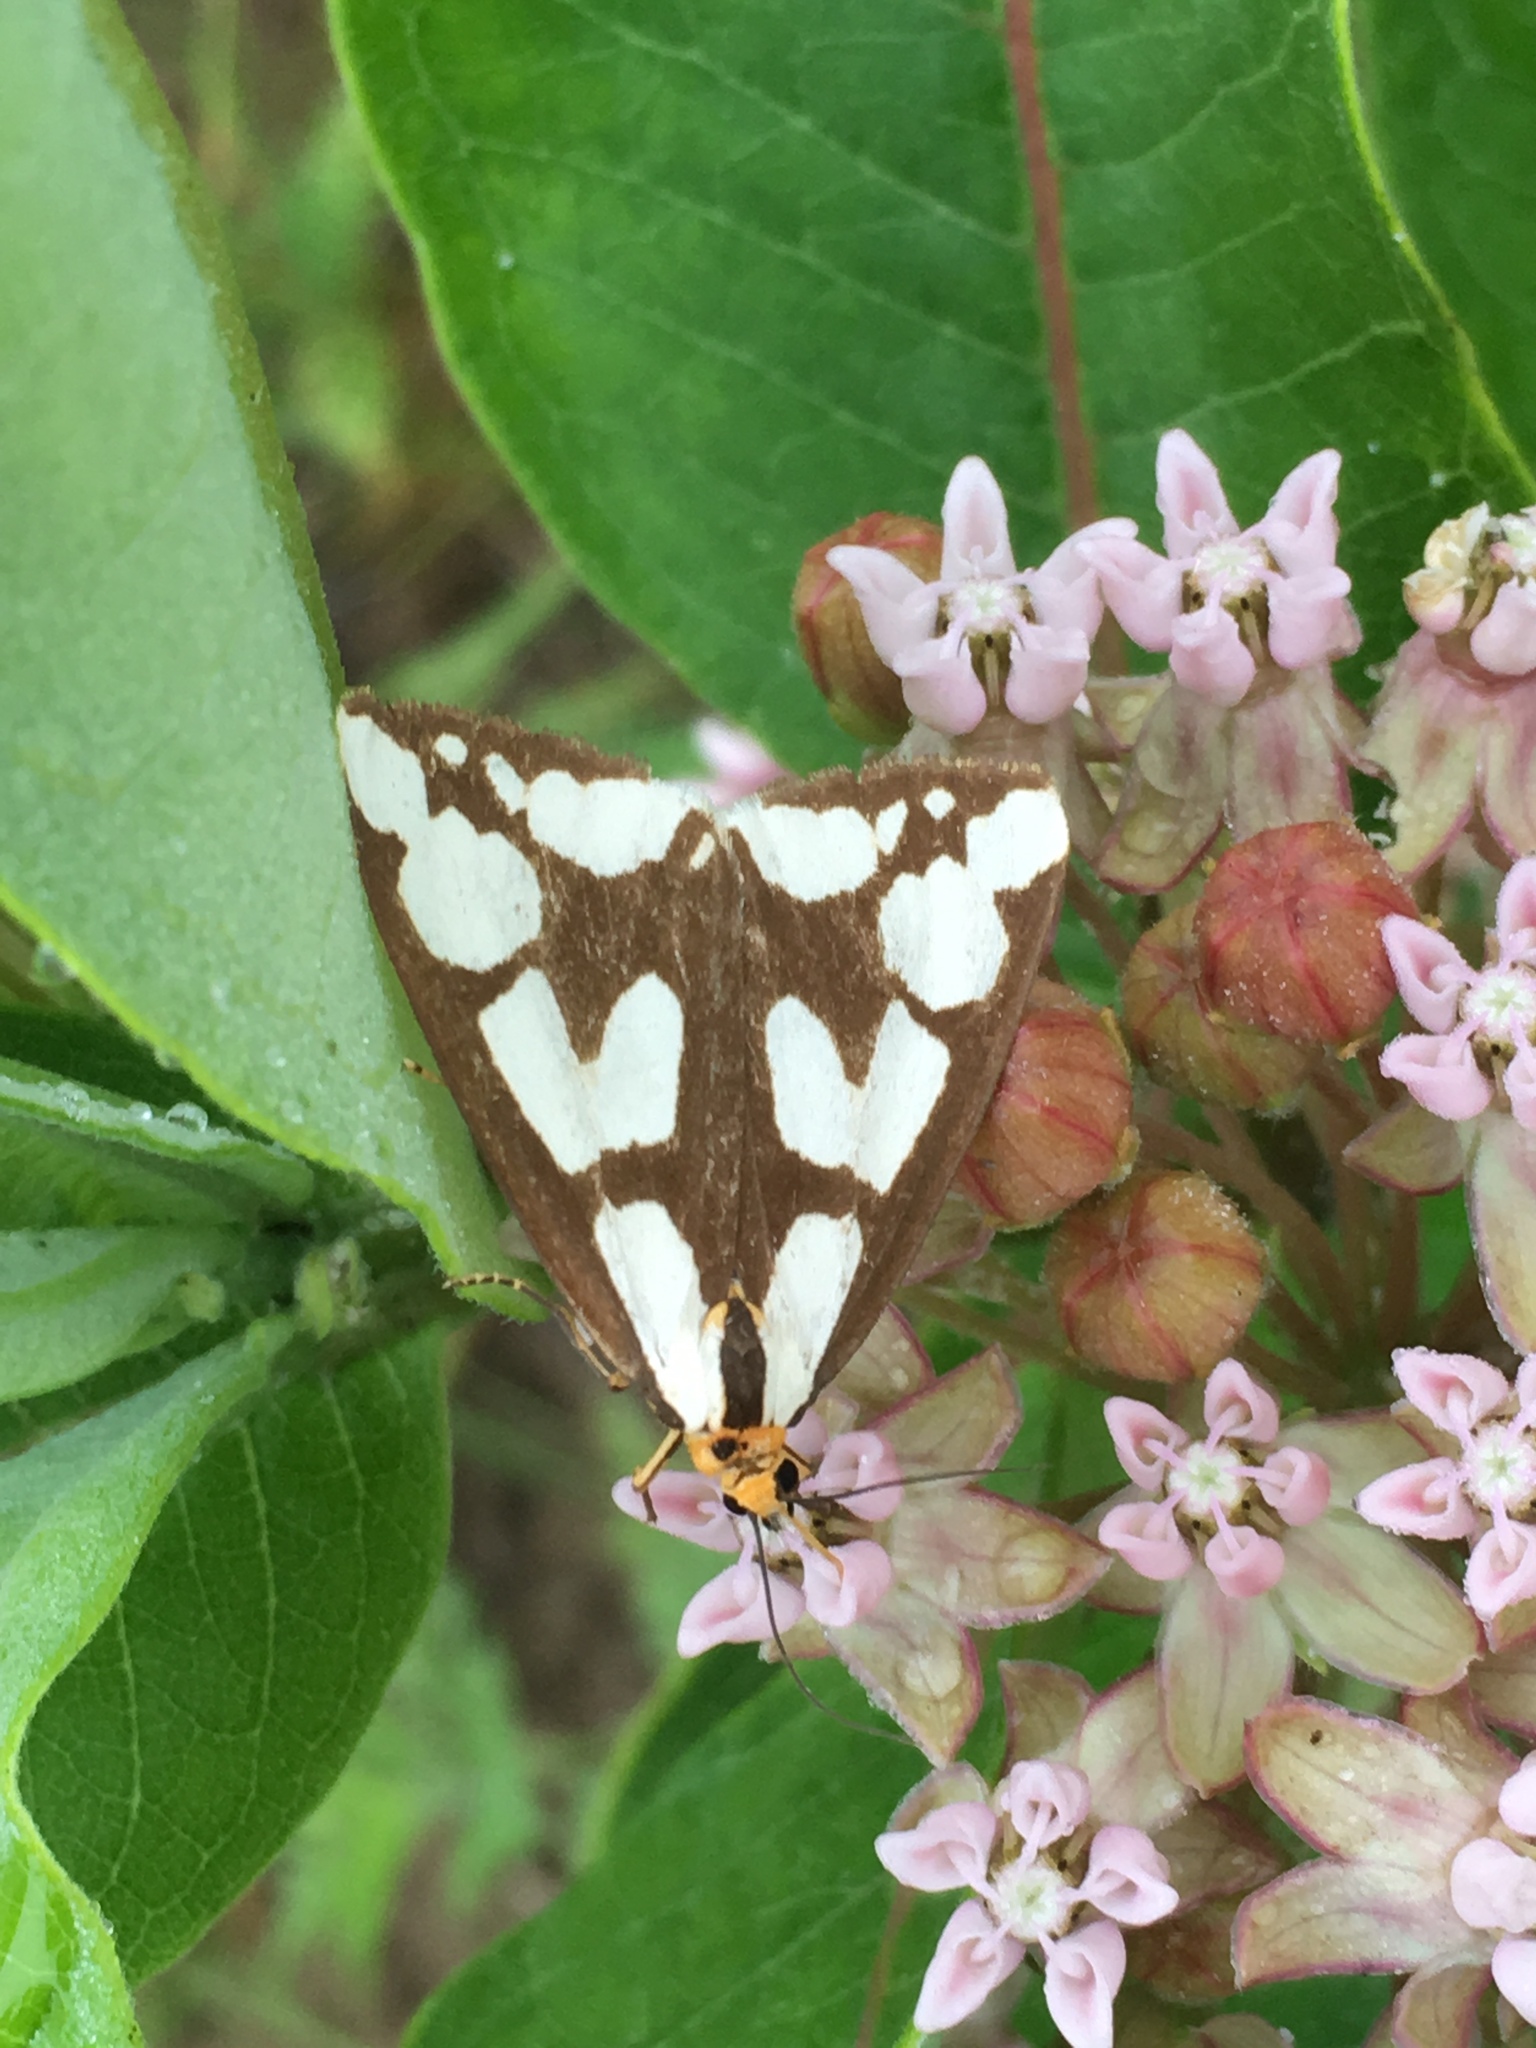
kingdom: Animalia
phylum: Arthropoda
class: Insecta
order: Lepidoptera
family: Erebidae
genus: Haploa
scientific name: Haploa confusa
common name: Confused haploa moth
